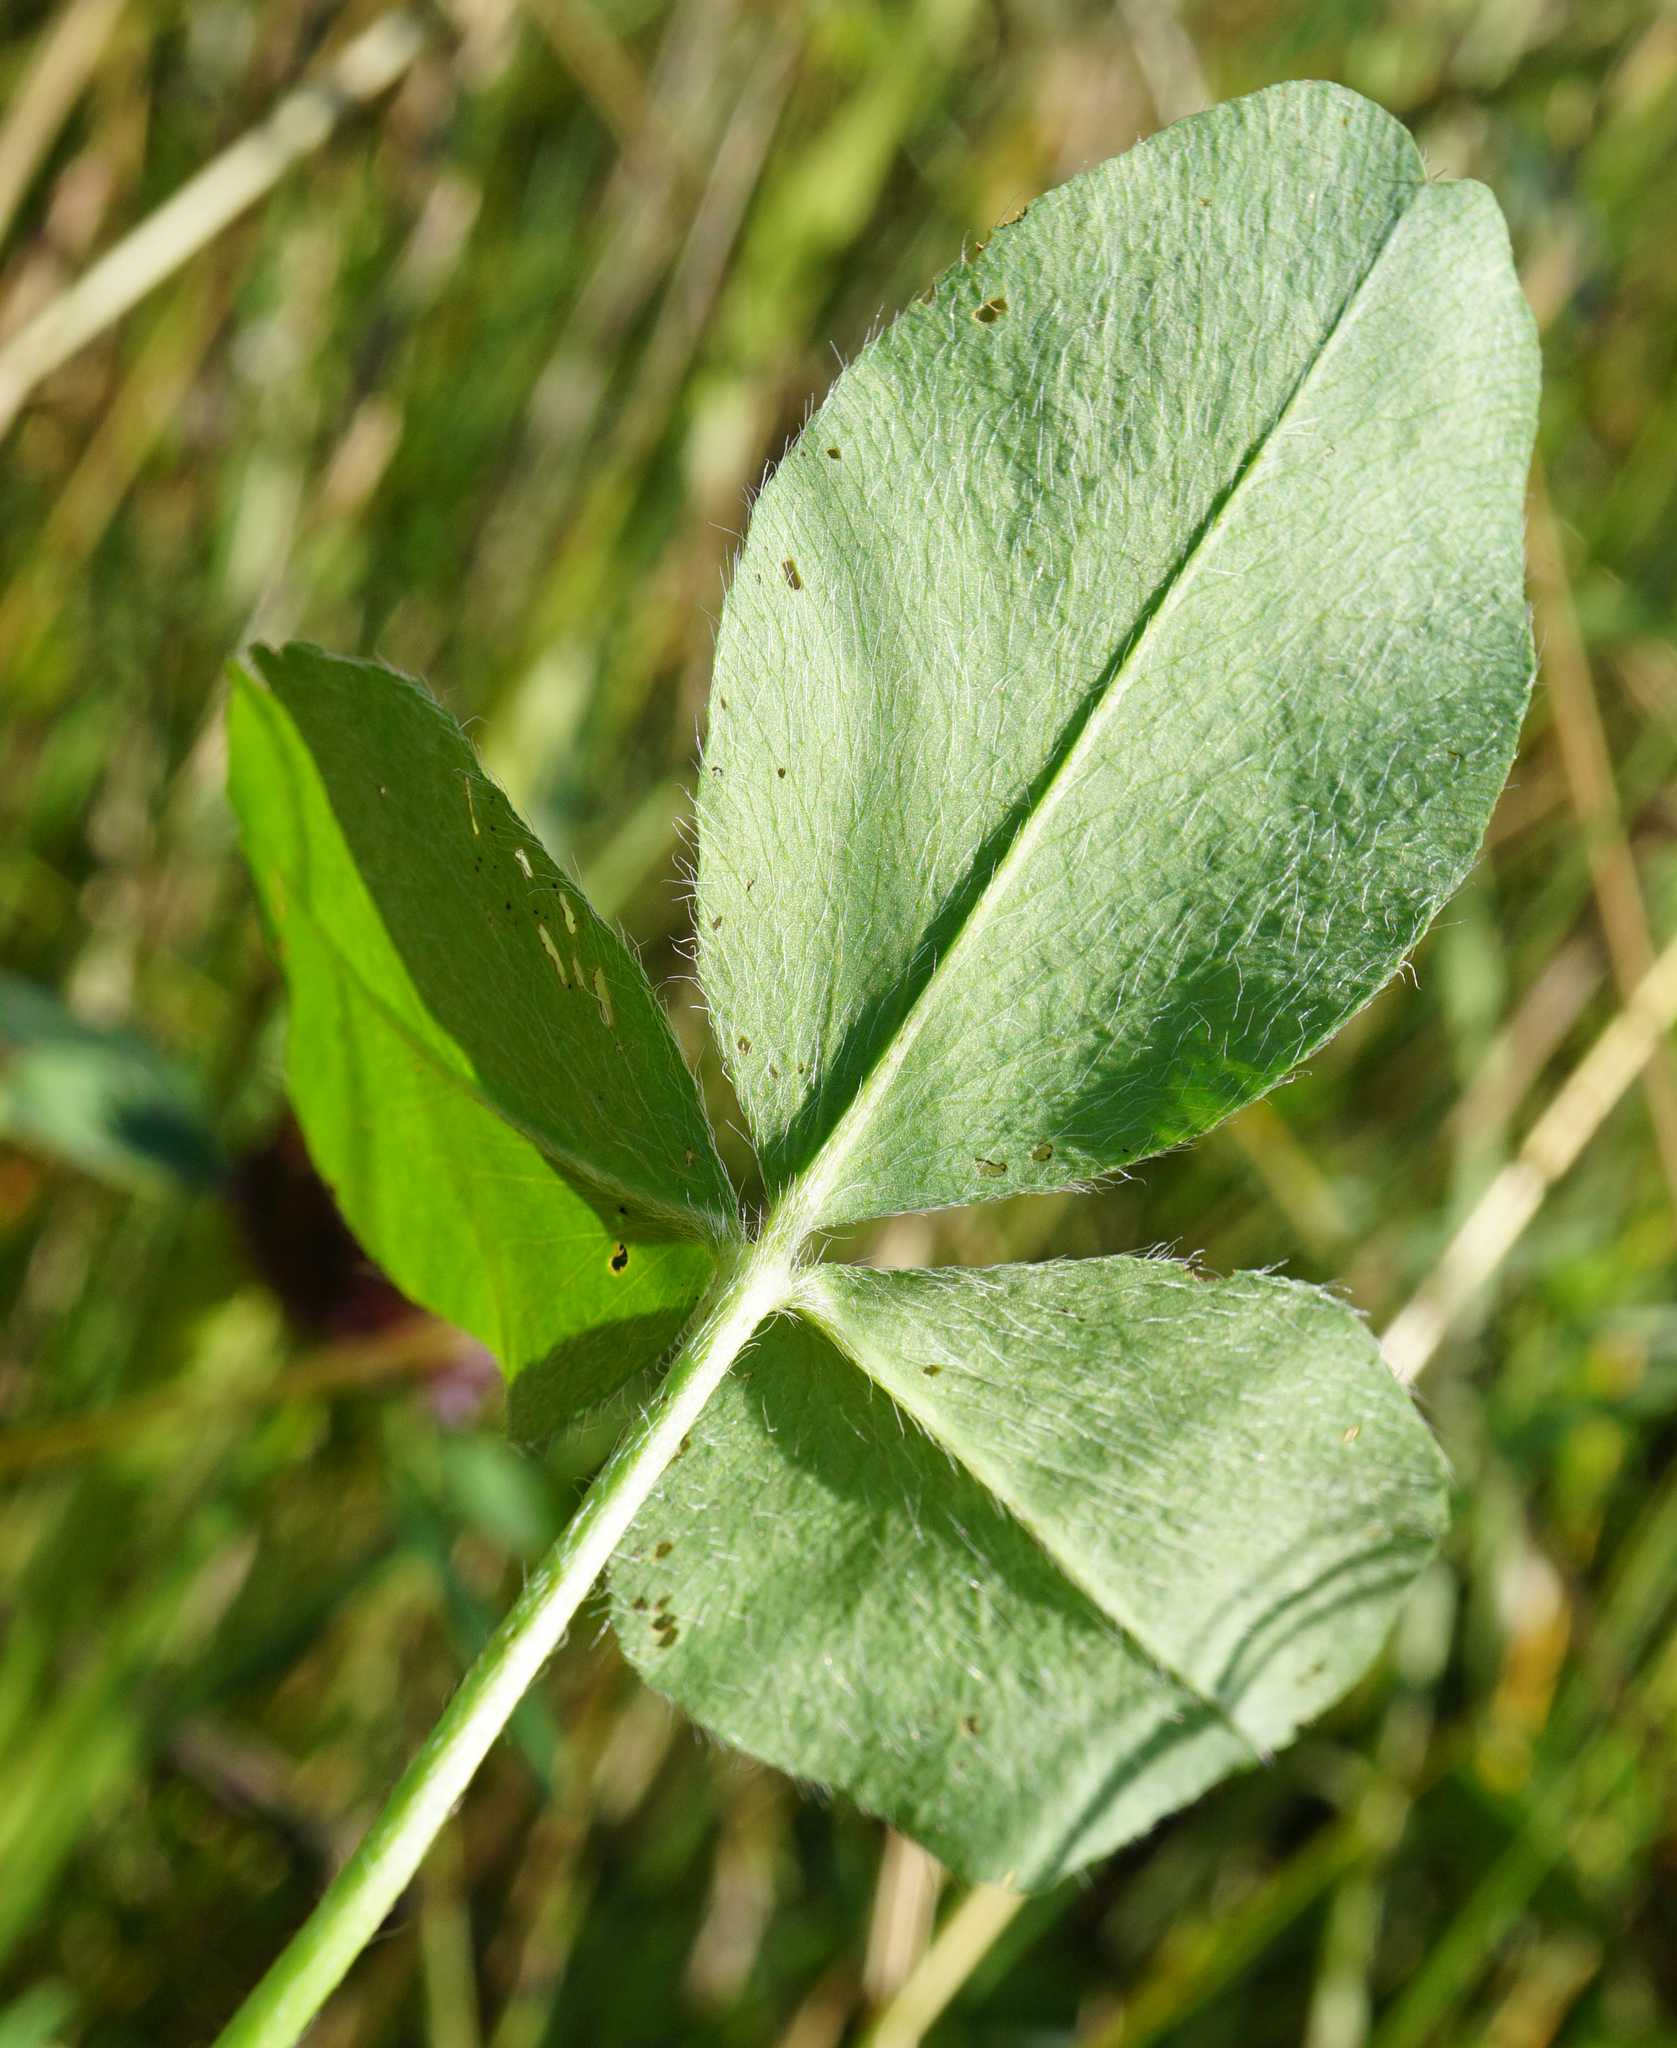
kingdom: Plantae
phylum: Tracheophyta
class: Magnoliopsida
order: Fabales
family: Fabaceae
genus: Trifolium
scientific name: Trifolium pratense
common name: Red clover
